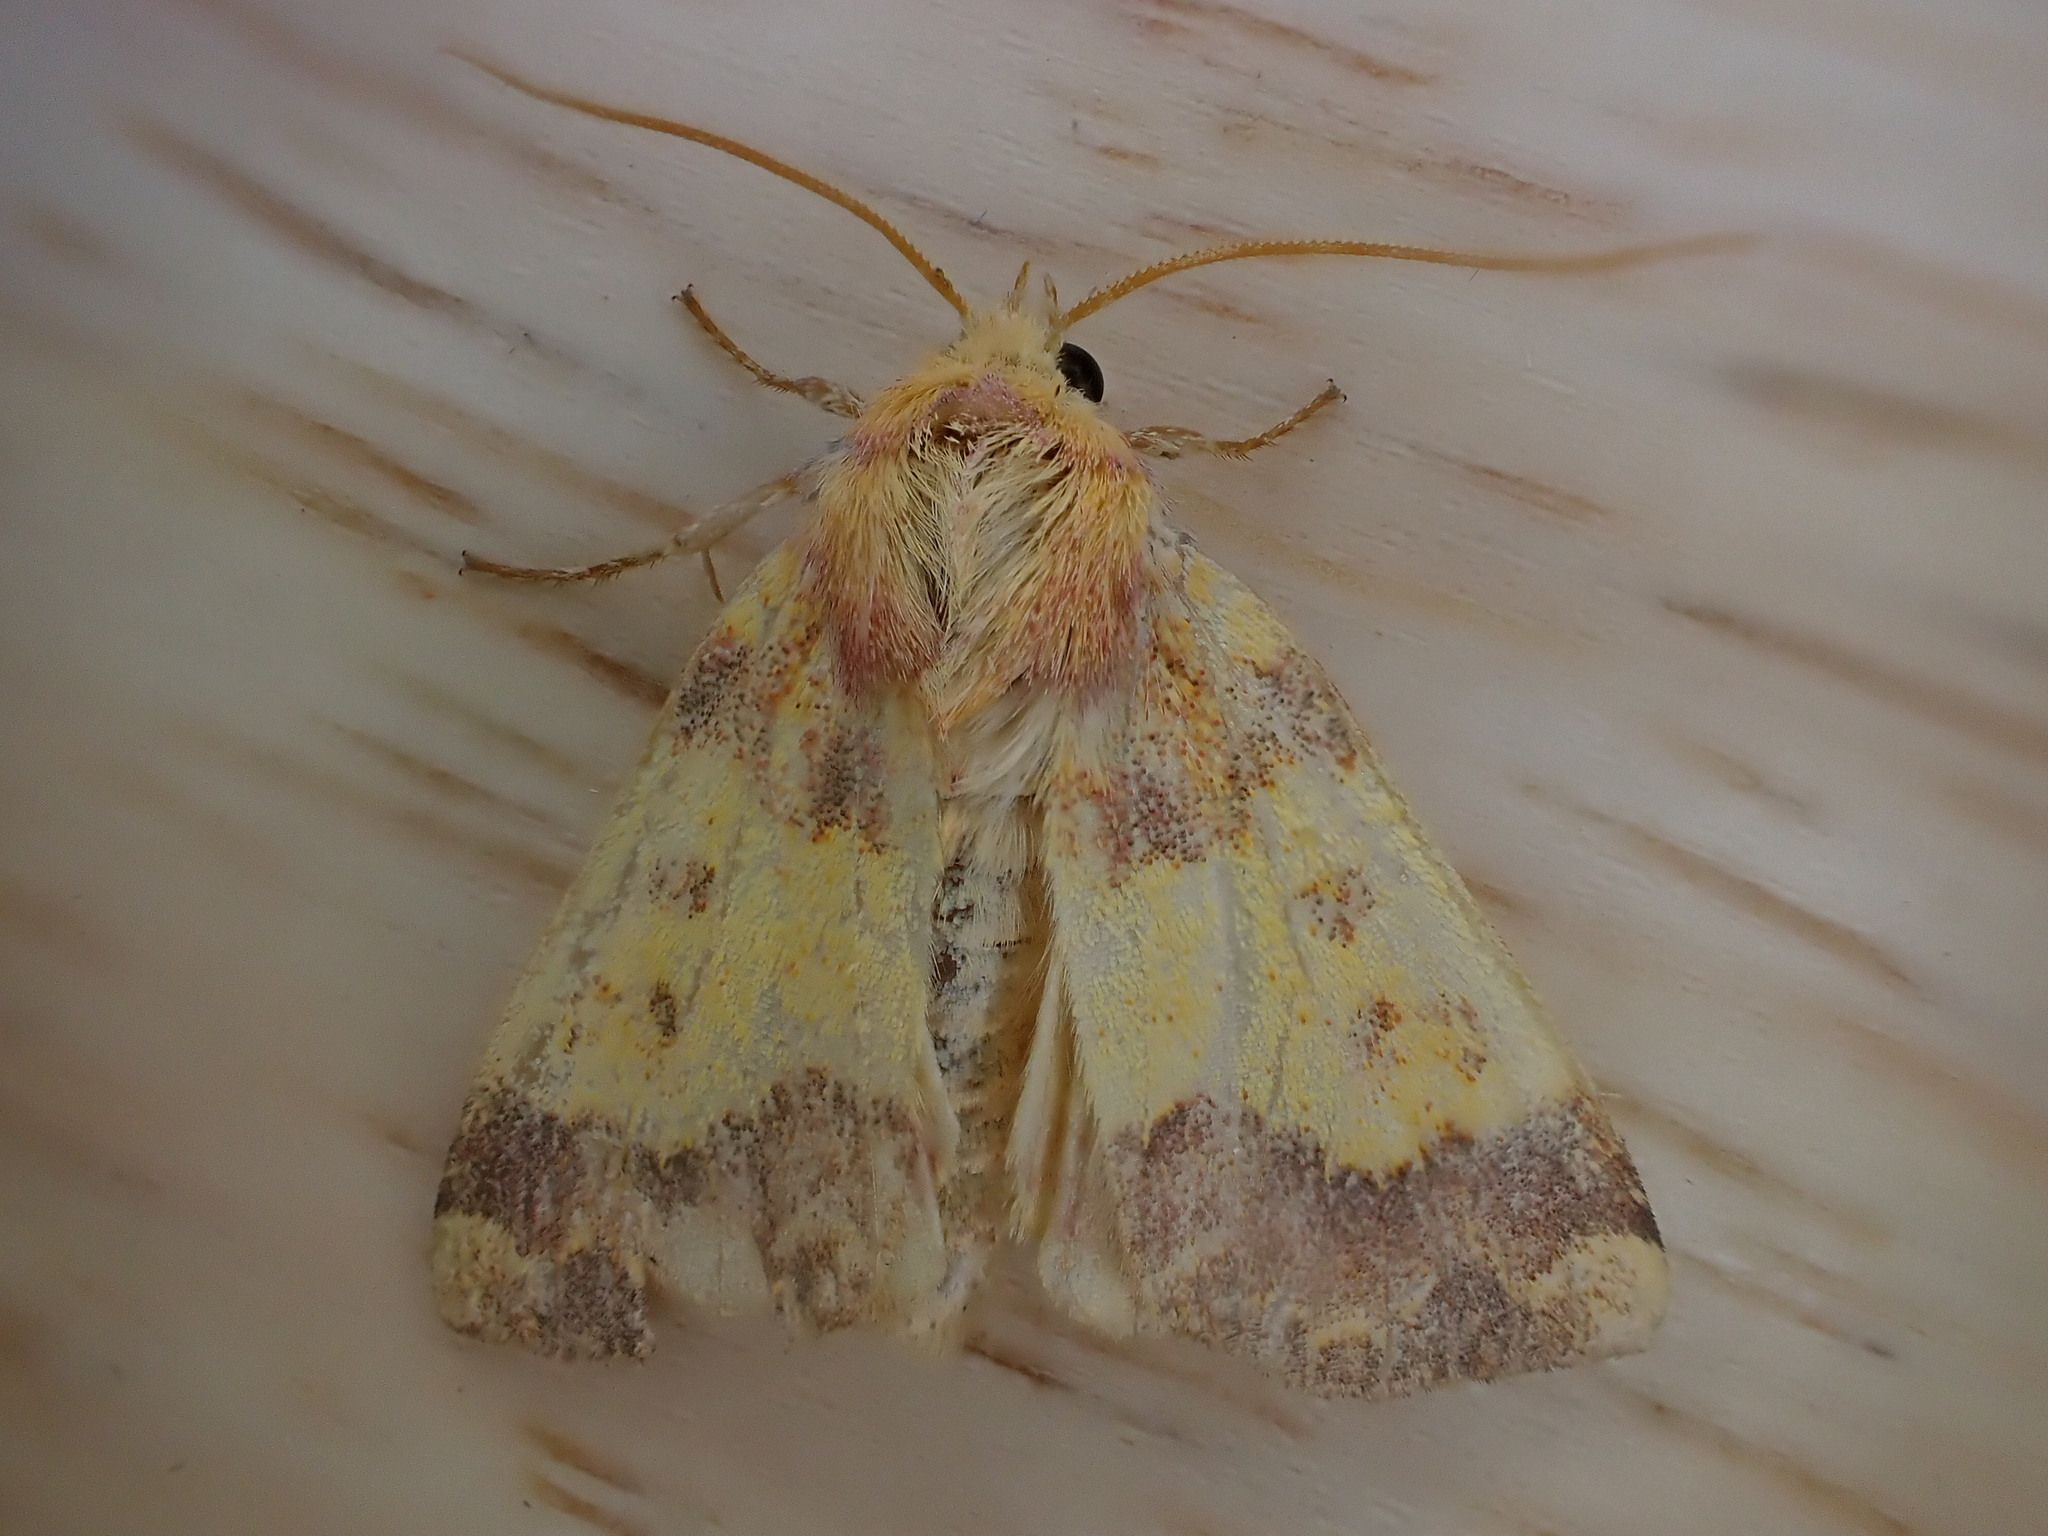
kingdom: Animalia
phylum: Arthropoda
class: Insecta
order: Lepidoptera
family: Noctuidae
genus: Tiliacea
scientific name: Tiliacea aurago
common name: Barred sallow
